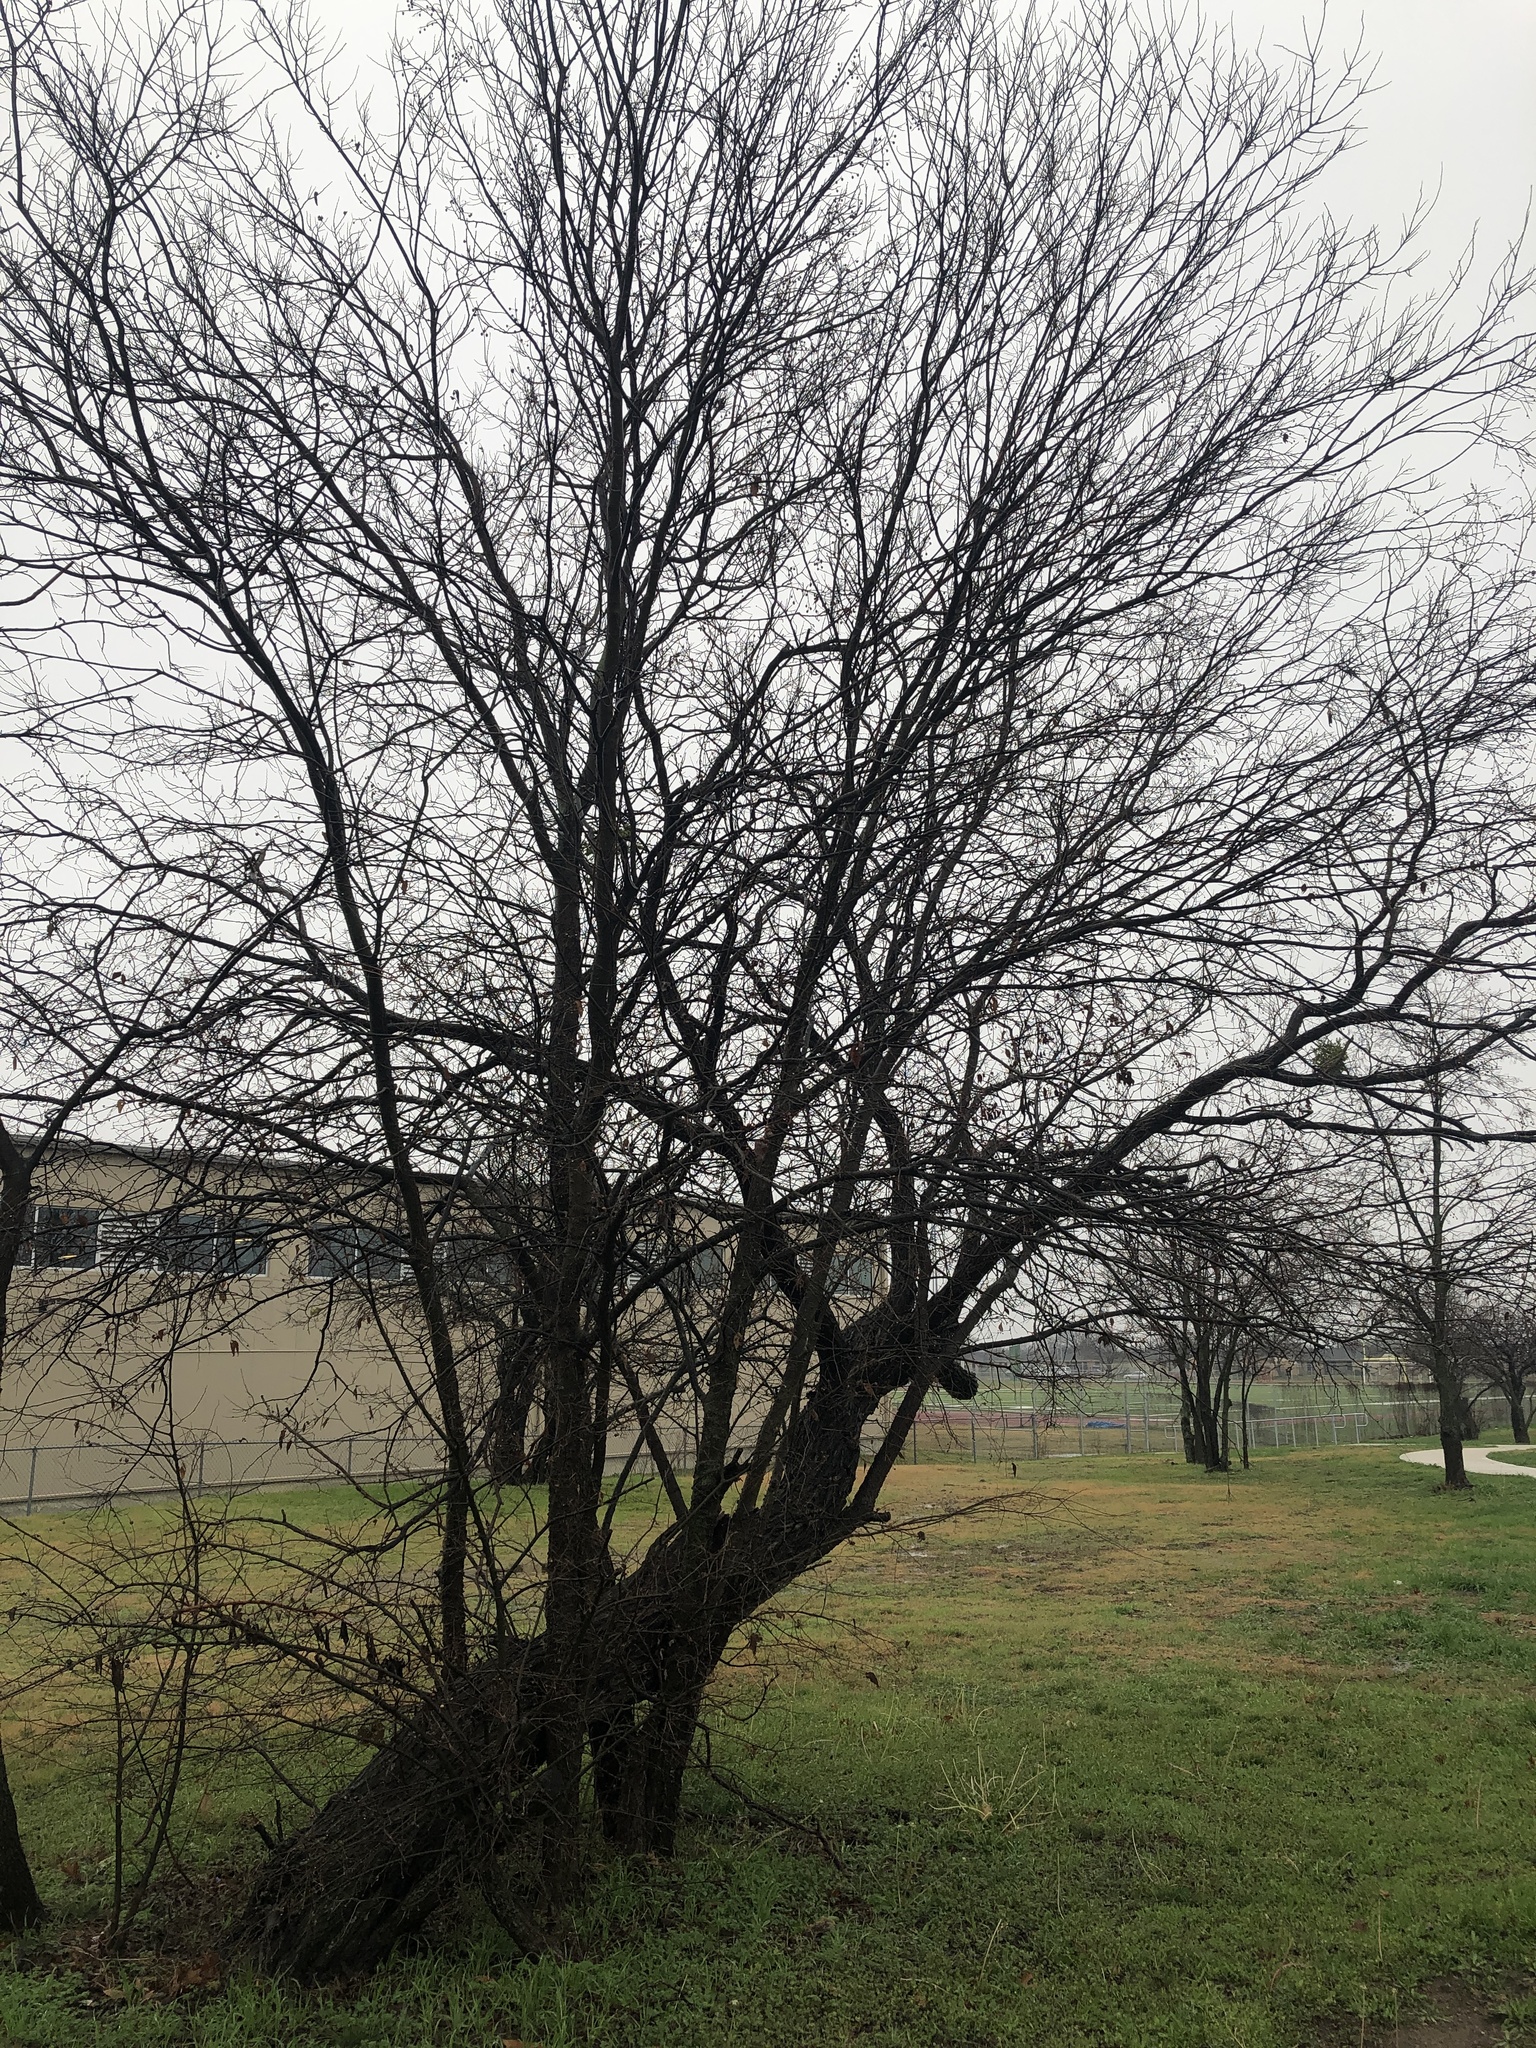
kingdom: Plantae
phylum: Tracheophyta
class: Magnoliopsida
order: Rosales
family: Cannabaceae
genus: Celtis
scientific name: Celtis laevigata
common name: Sugarberry
